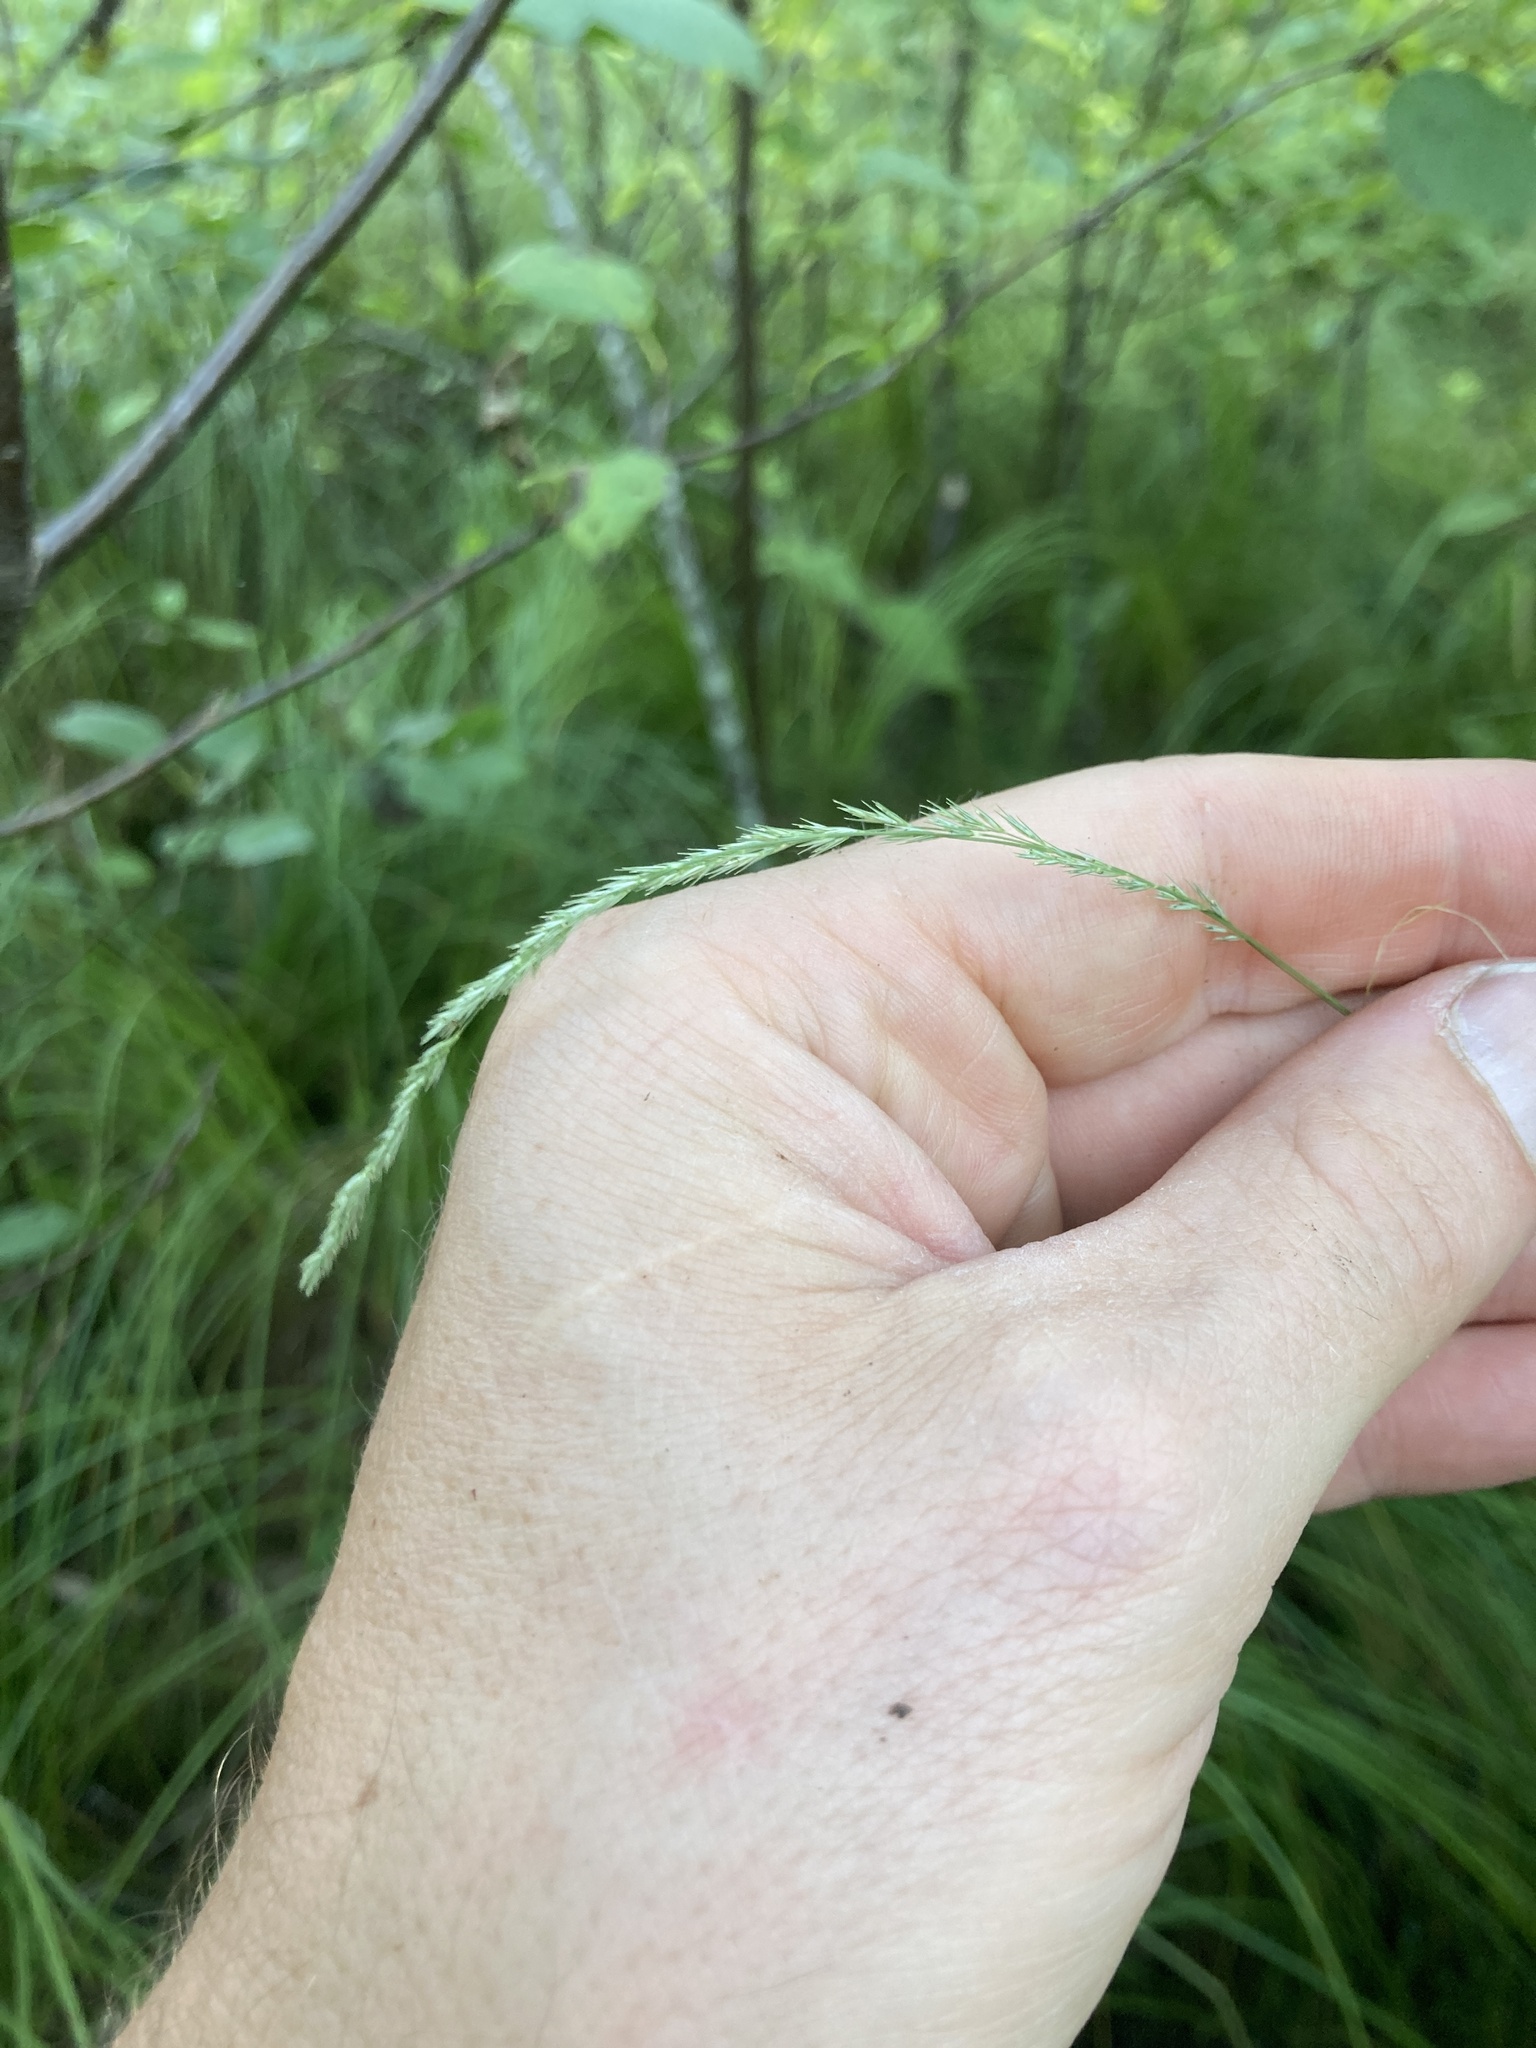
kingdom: Plantae
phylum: Tracheophyta
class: Liliopsida
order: Poales
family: Poaceae
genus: Muhlenbergia
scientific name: Muhlenbergia mexicana
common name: Mexican muhly
